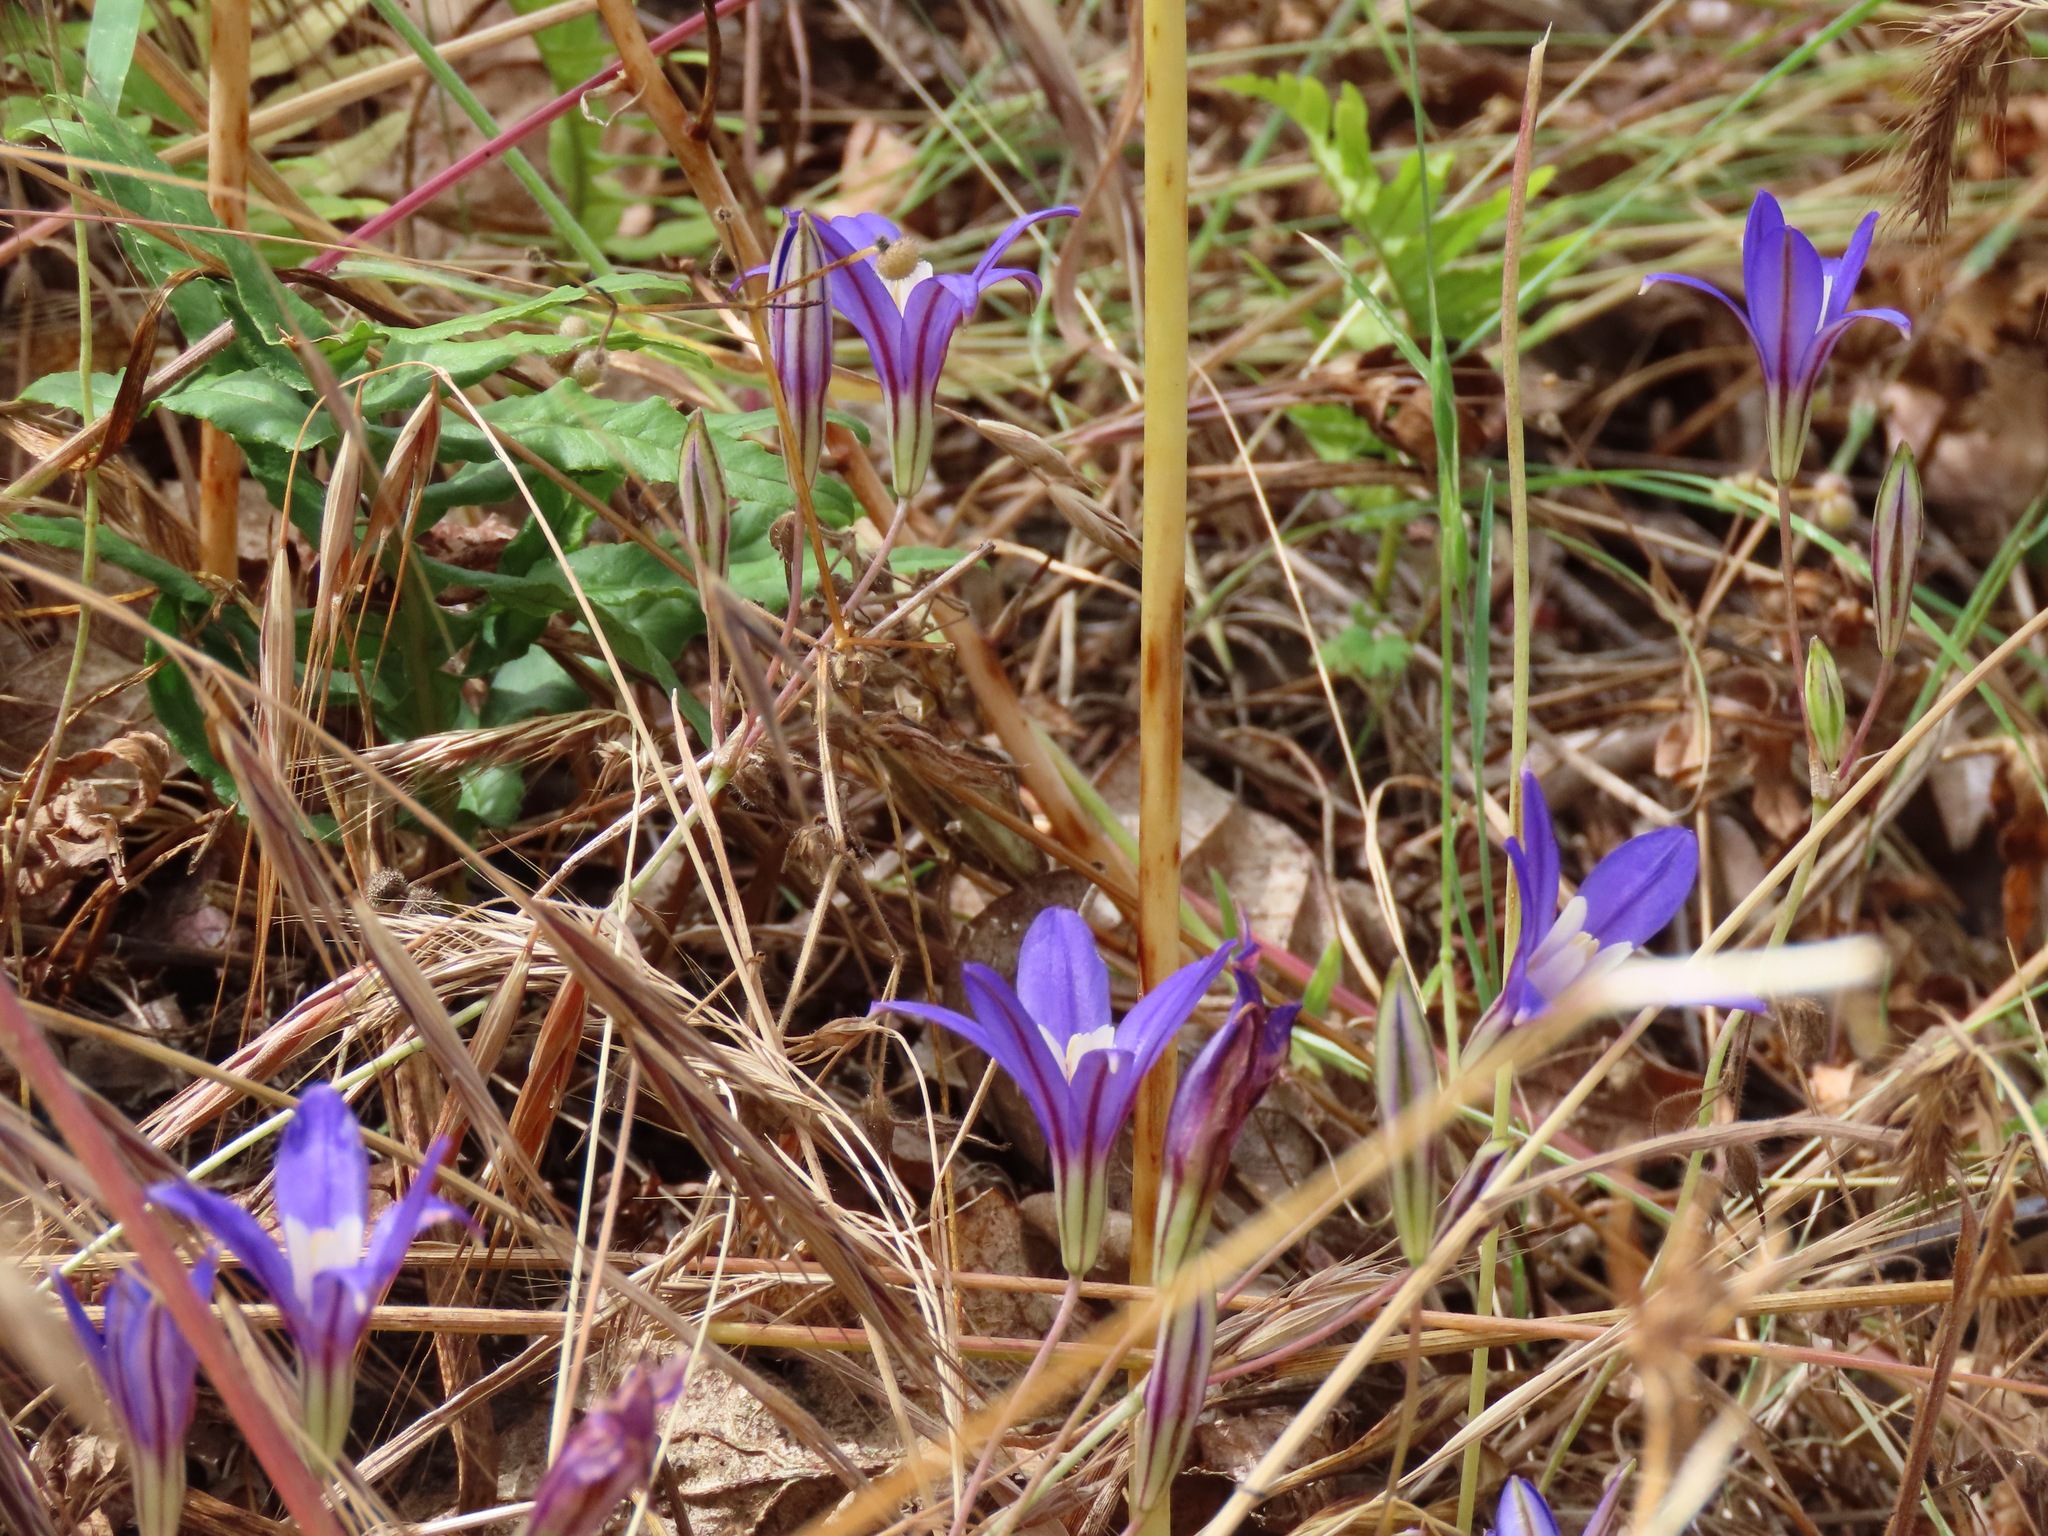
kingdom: Plantae
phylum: Tracheophyta
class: Liliopsida
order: Asparagales
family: Asparagaceae
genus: Brodiaea
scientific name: Brodiaea coronaria
